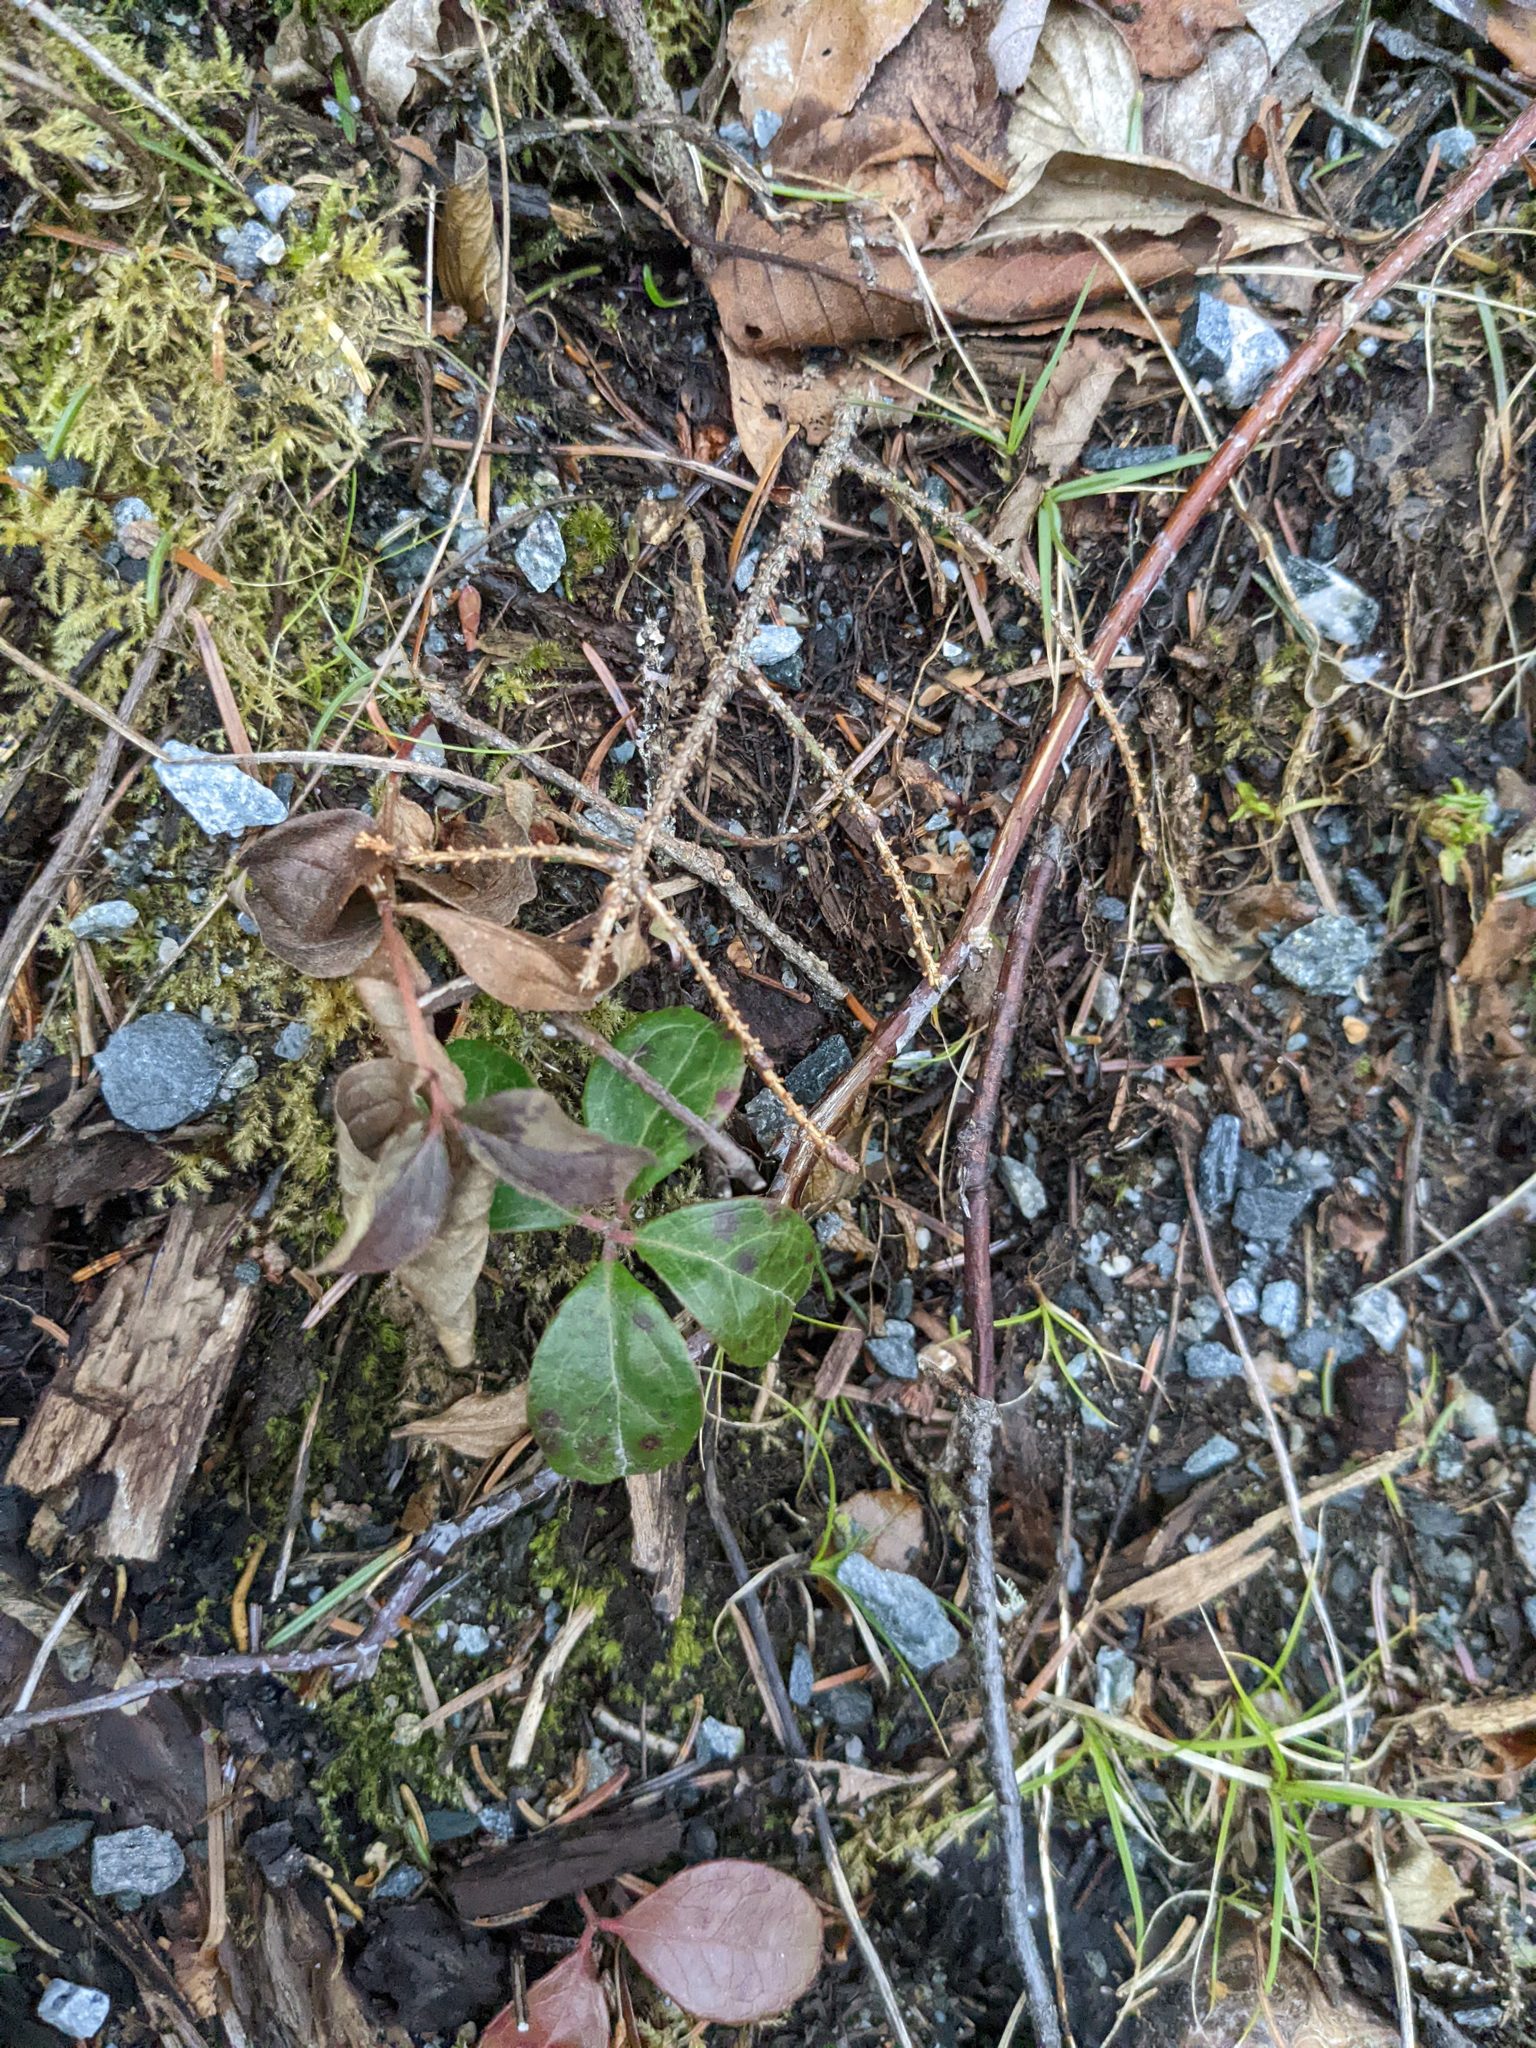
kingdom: Plantae
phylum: Tracheophyta
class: Magnoliopsida
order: Ericales
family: Ericaceae
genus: Gaultheria
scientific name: Gaultheria procumbens
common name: Checkerberry
